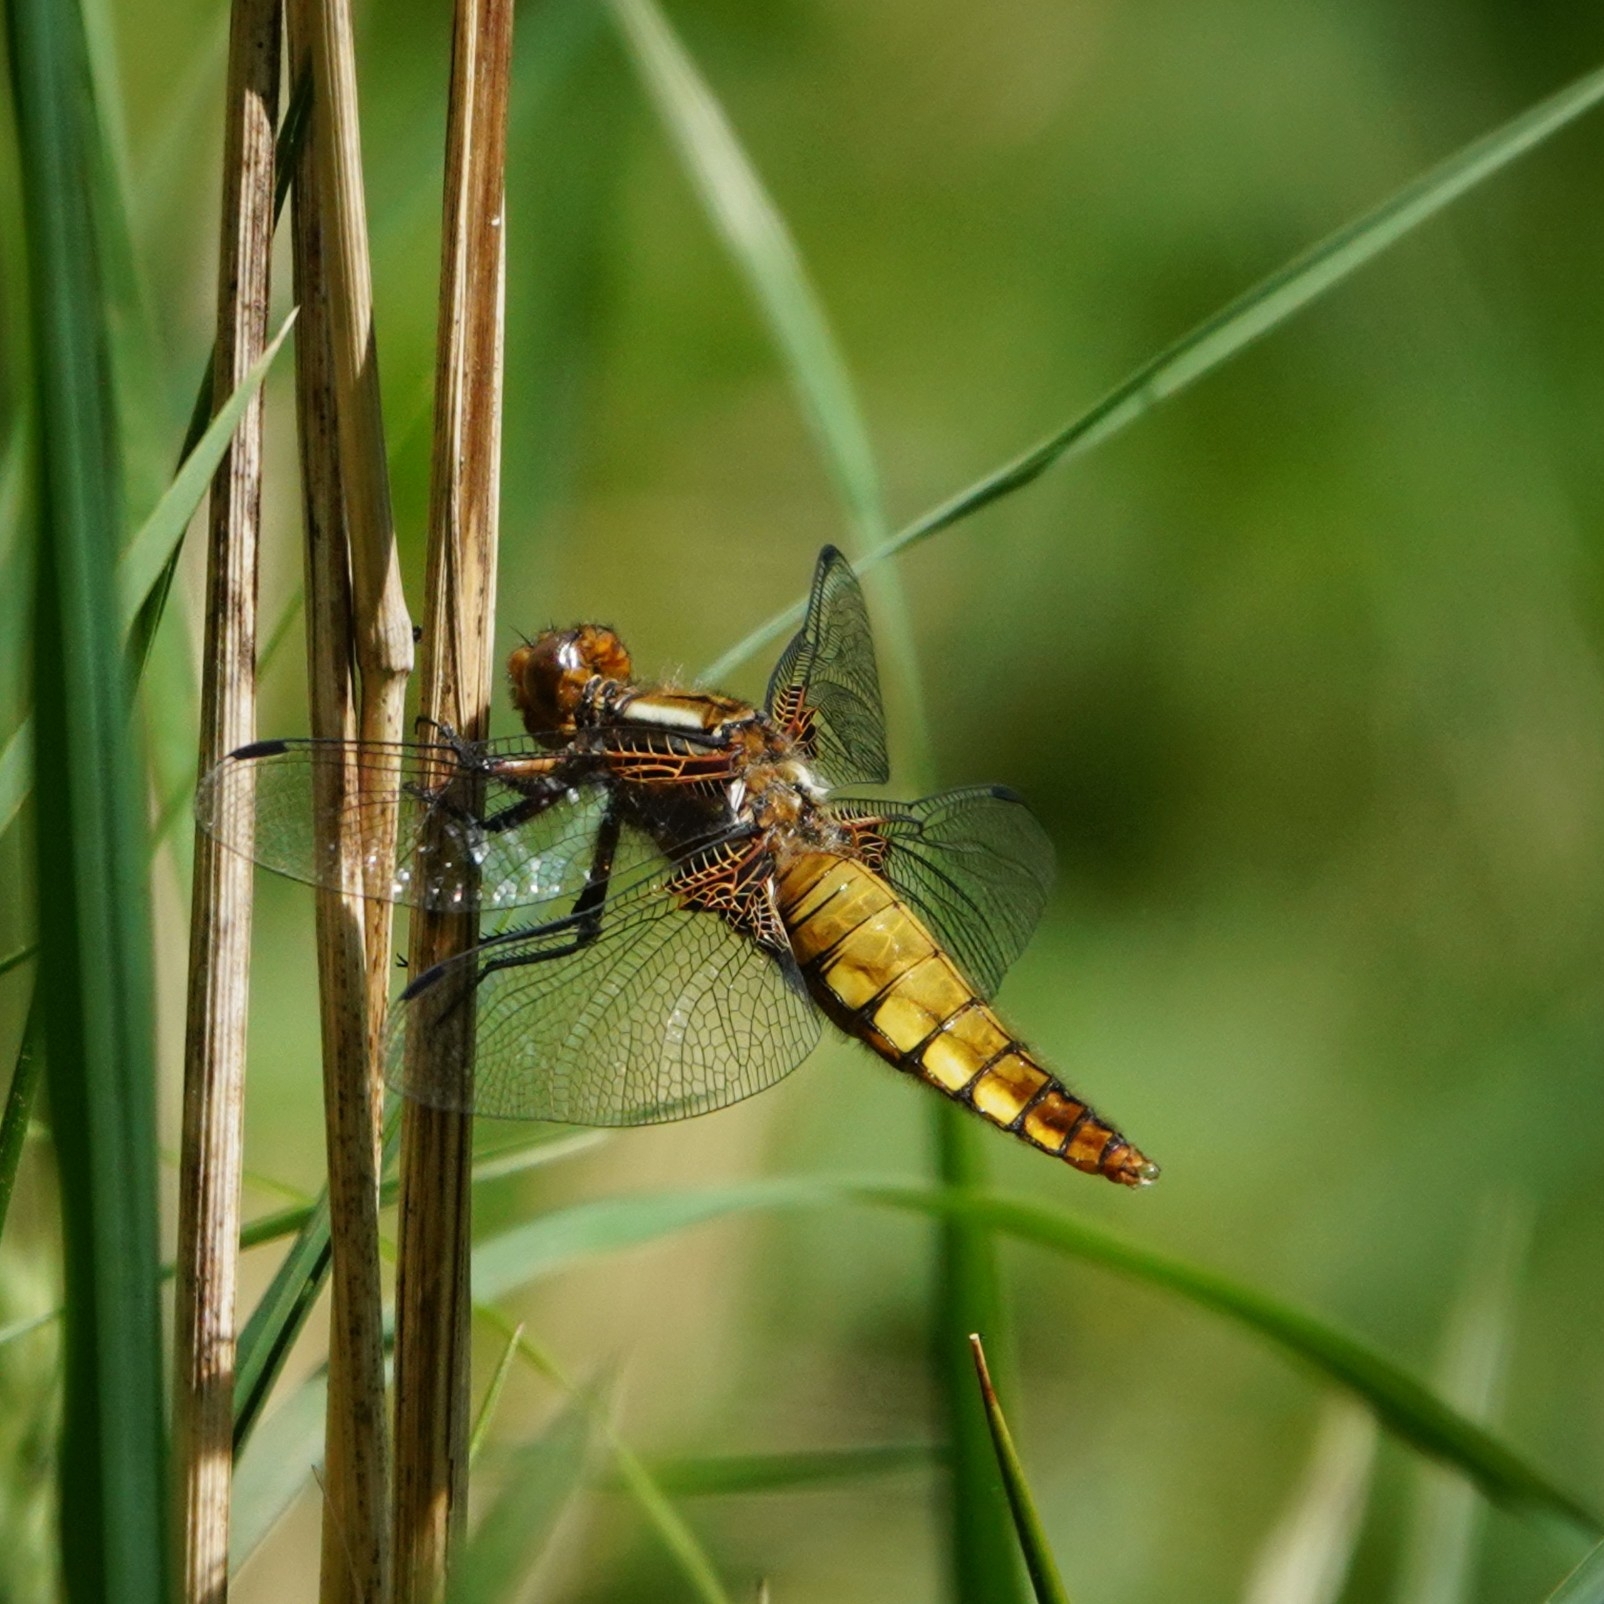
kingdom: Animalia
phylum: Arthropoda
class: Insecta
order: Odonata
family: Libellulidae
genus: Libellula
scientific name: Libellula depressa
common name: Broad-bodied chaser
